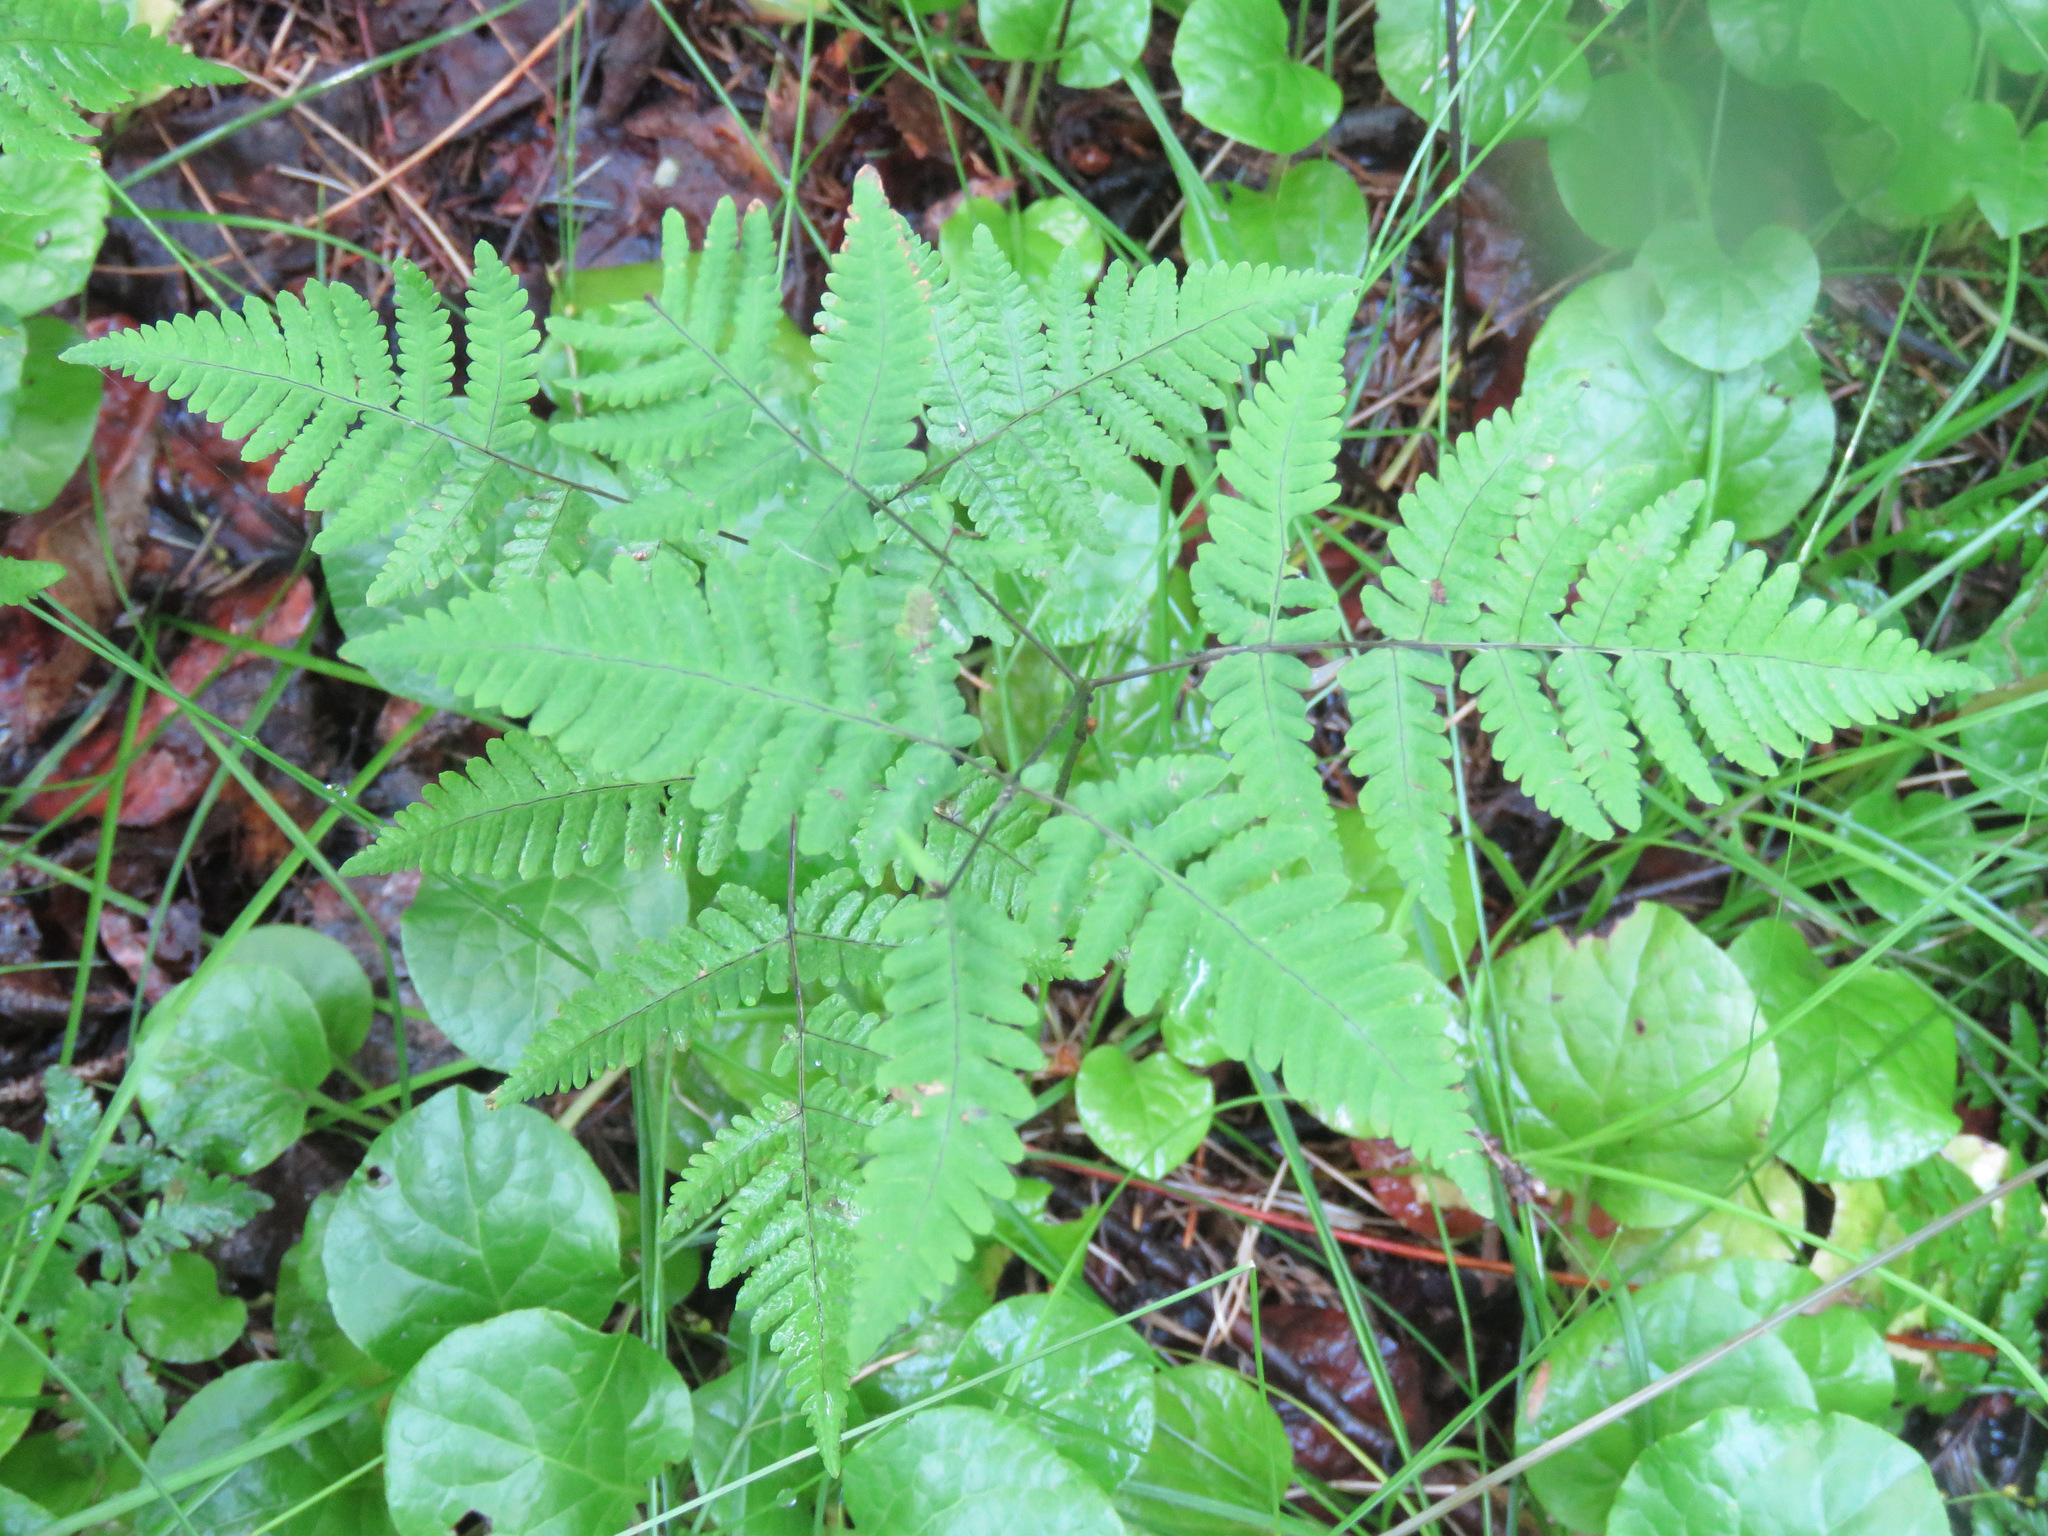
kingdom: Plantae
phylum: Tracheophyta
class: Polypodiopsida
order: Polypodiales
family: Cystopteridaceae
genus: Gymnocarpium
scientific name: Gymnocarpium dryopteris
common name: Oak fern
